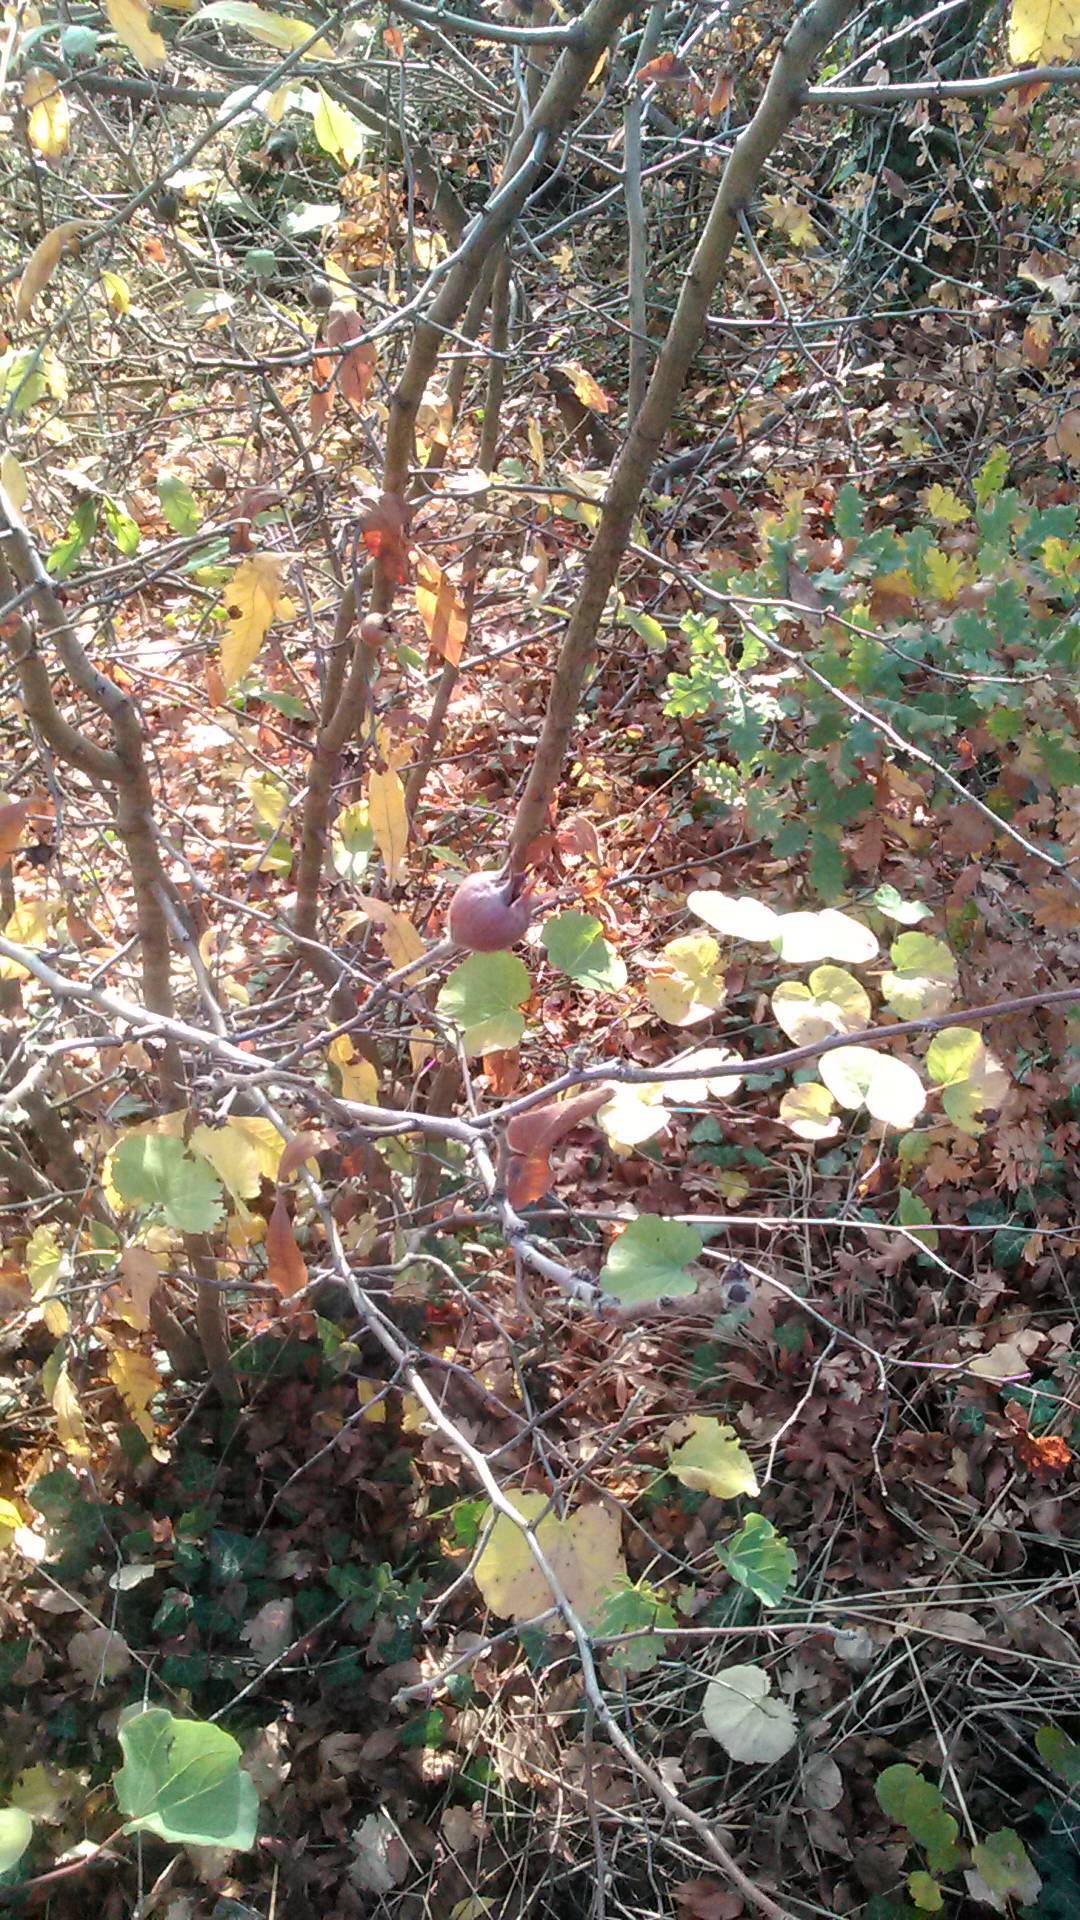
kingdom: Plantae
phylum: Tracheophyta
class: Magnoliopsida
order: Rosales
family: Rosaceae
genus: Mespilus
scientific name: Mespilus germanica
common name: Medlar
